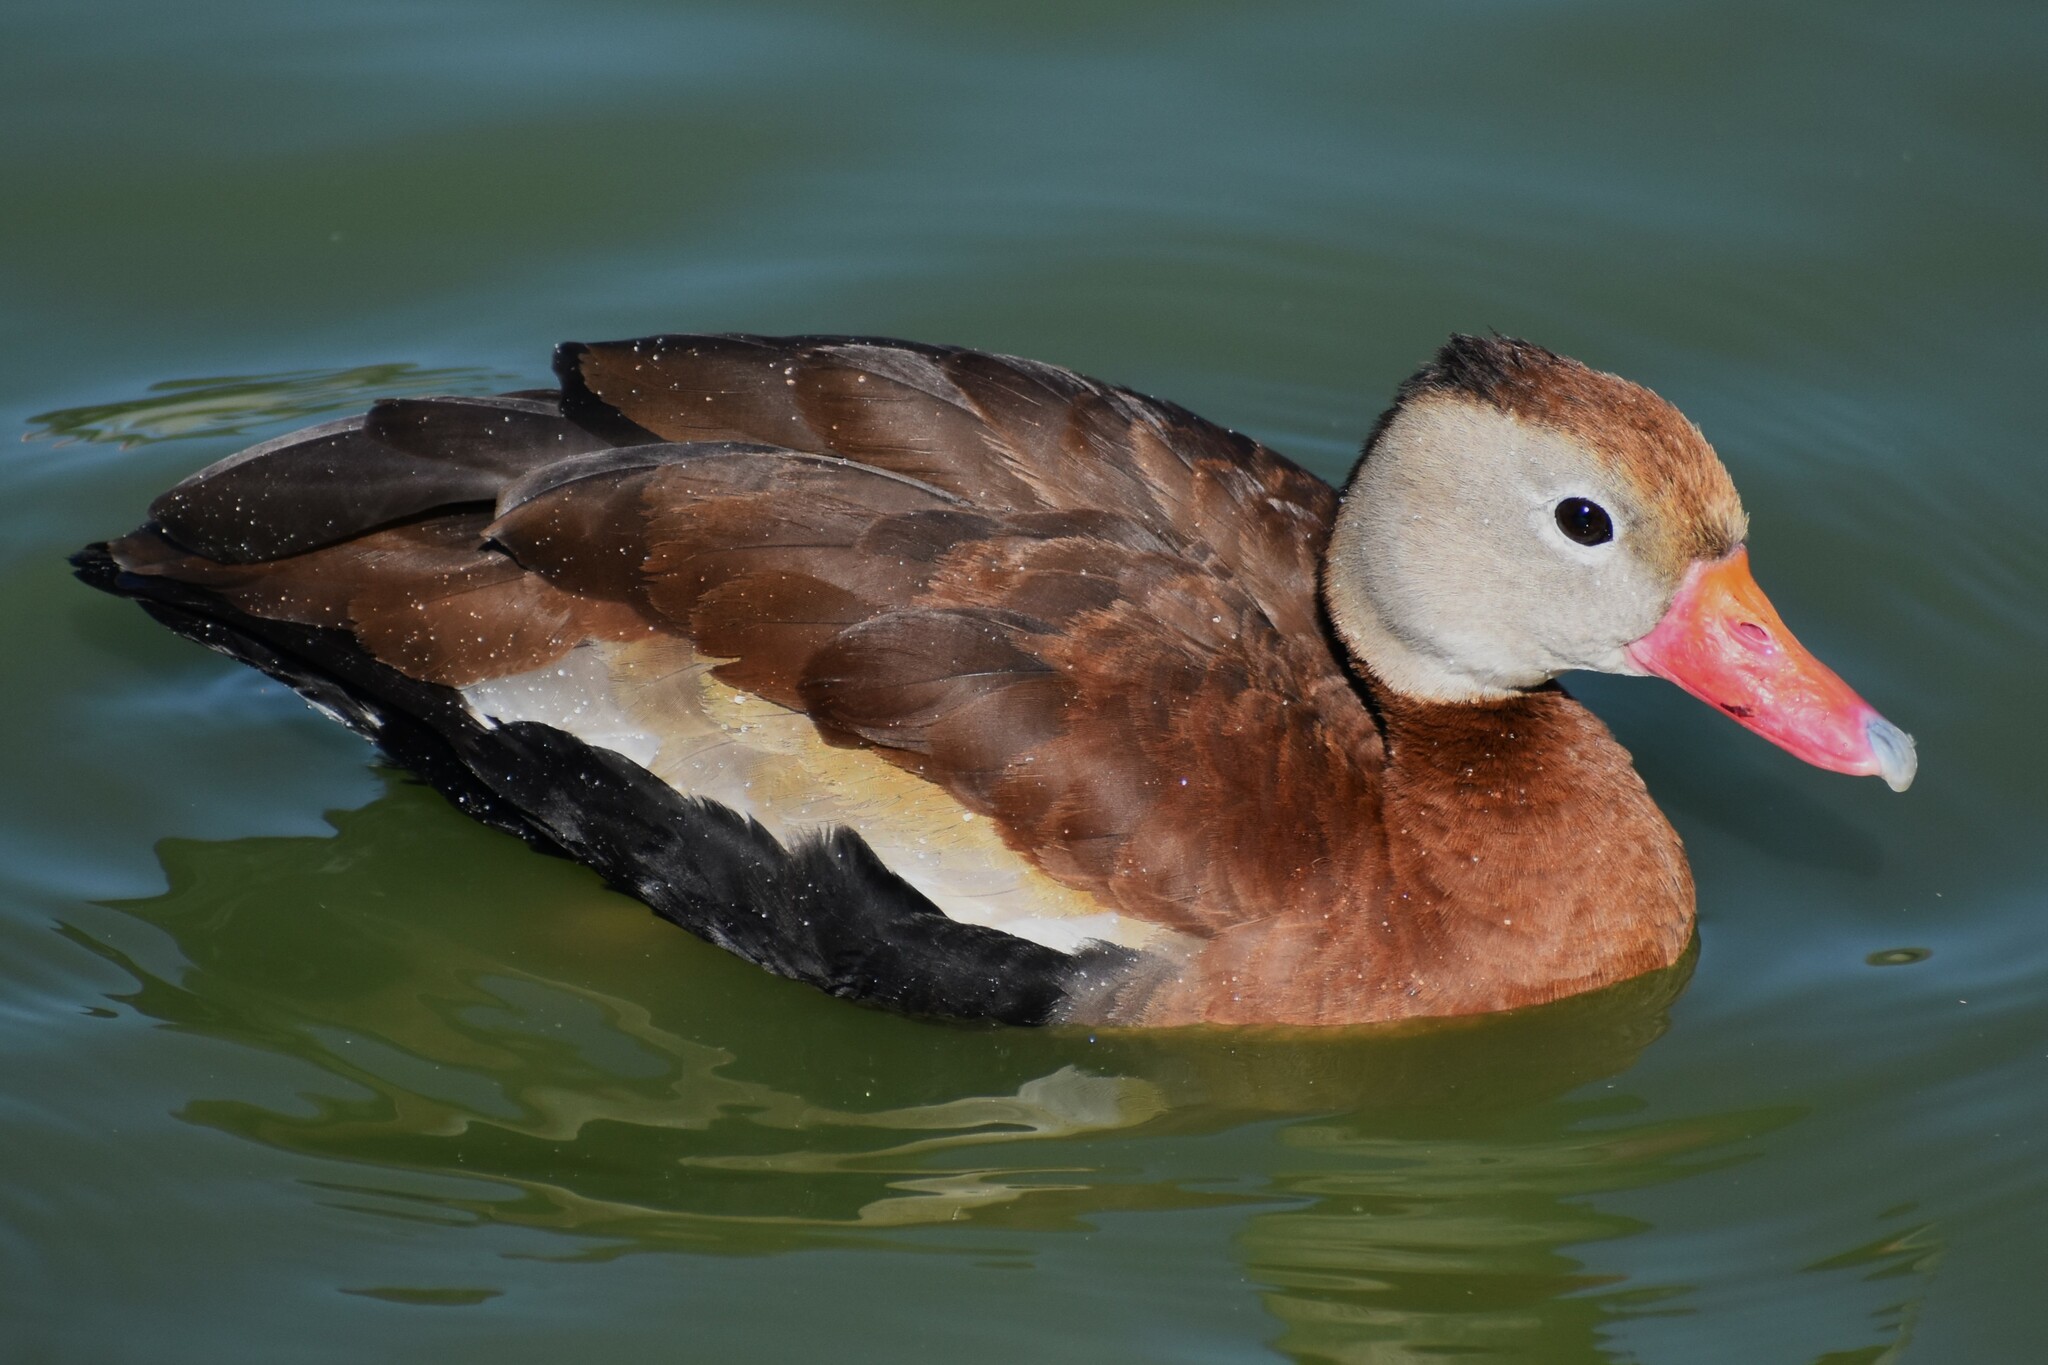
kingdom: Animalia
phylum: Chordata
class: Aves
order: Anseriformes
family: Anatidae
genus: Dendrocygna
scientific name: Dendrocygna autumnalis
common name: Black-bellied whistling duck
